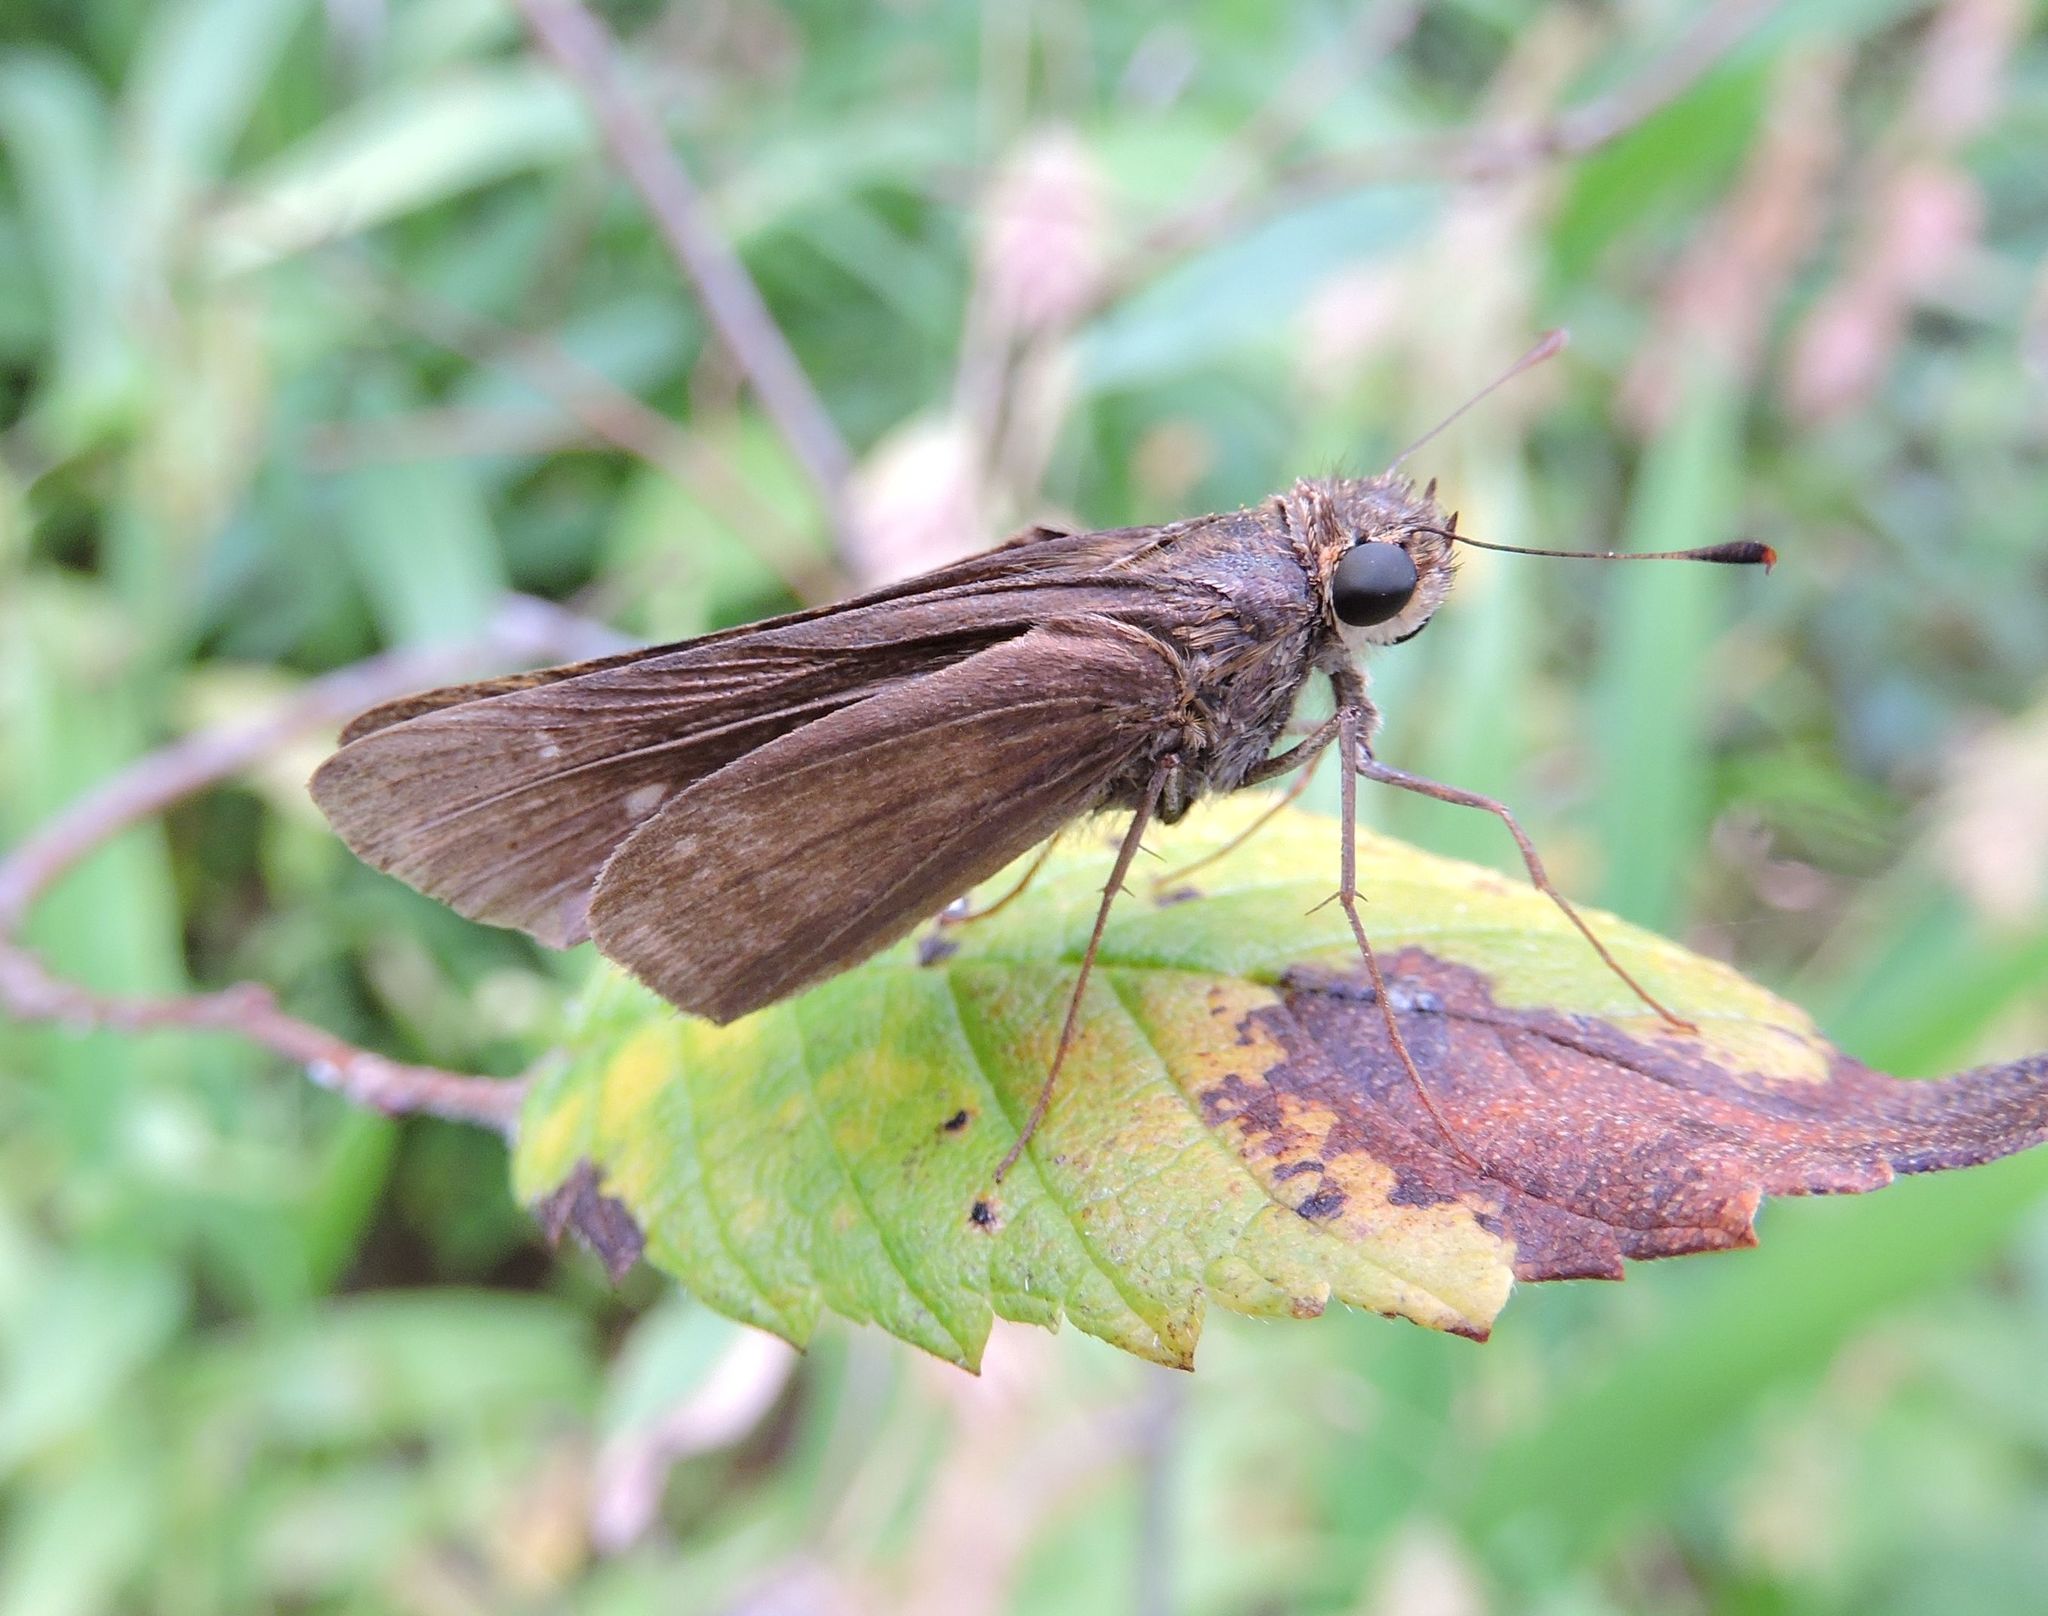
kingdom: Animalia
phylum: Arthropoda
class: Insecta
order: Lepidoptera
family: Hesperiidae
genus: Panoquina
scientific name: Panoquina ocola
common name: Ocola skipper
